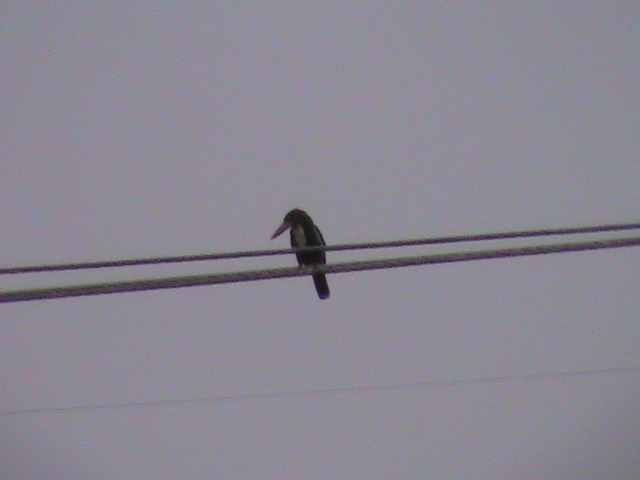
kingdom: Animalia
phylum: Chordata
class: Aves
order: Coraciiformes
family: Alcedinidae
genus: Halcyon
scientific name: Halcyon smyrnensis
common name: White-throated kingfisher
